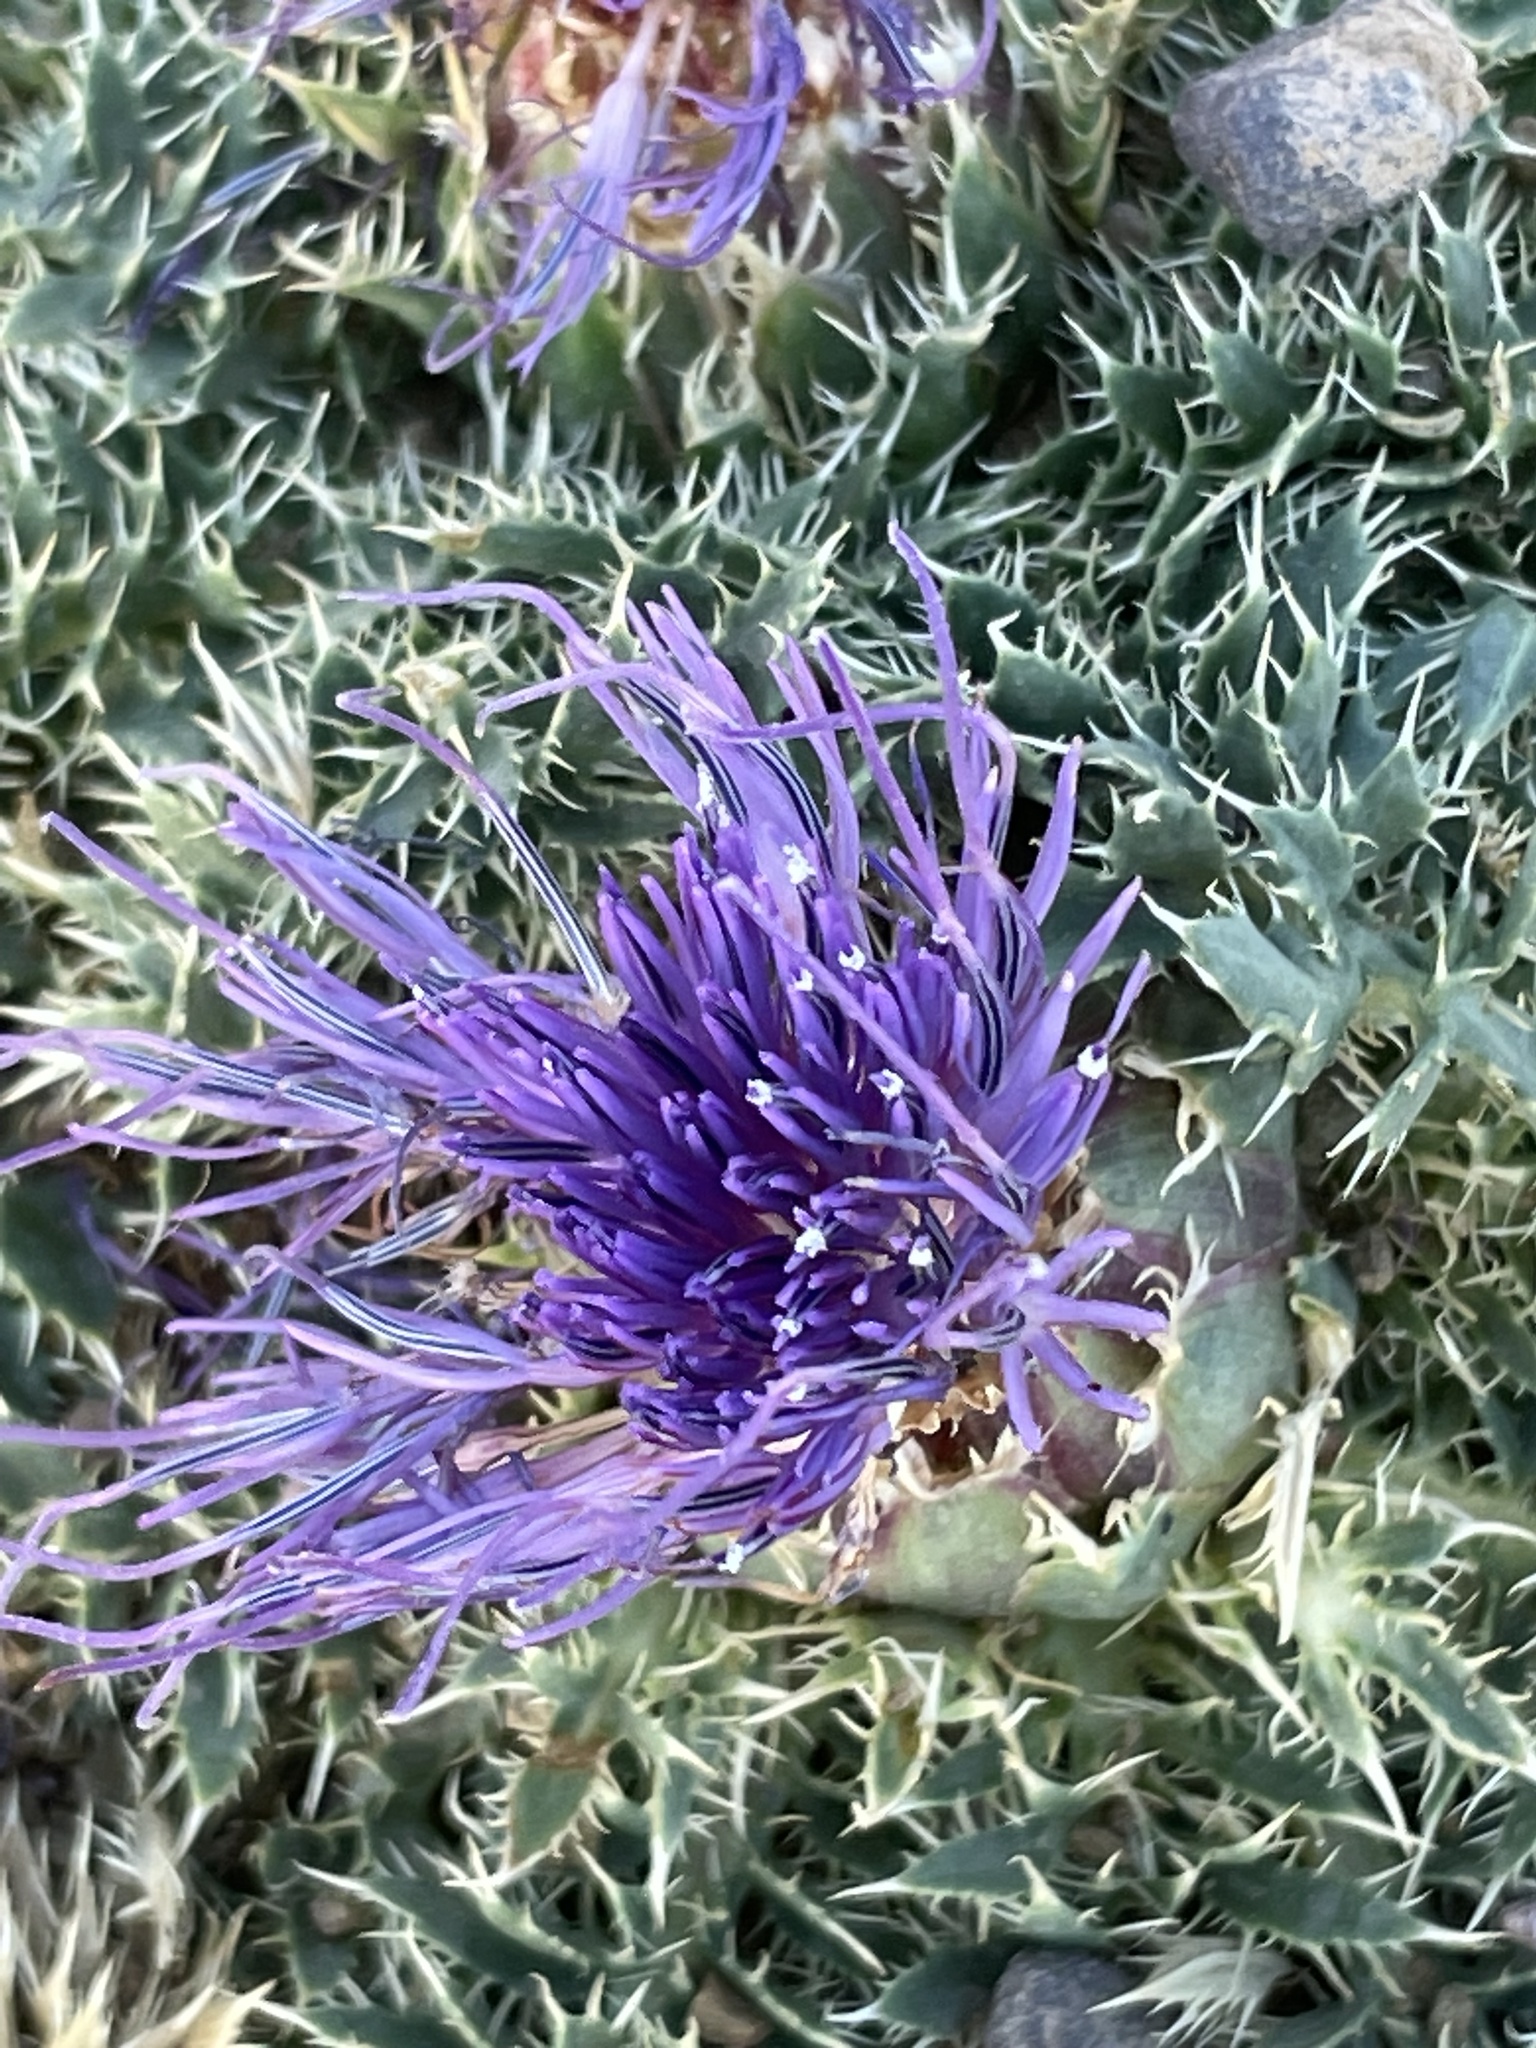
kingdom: Plantae
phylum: Tracheophyta
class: Magnoliopsida
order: Asterales
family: Asteraceae
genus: Carduncellus
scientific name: Carduncellus
